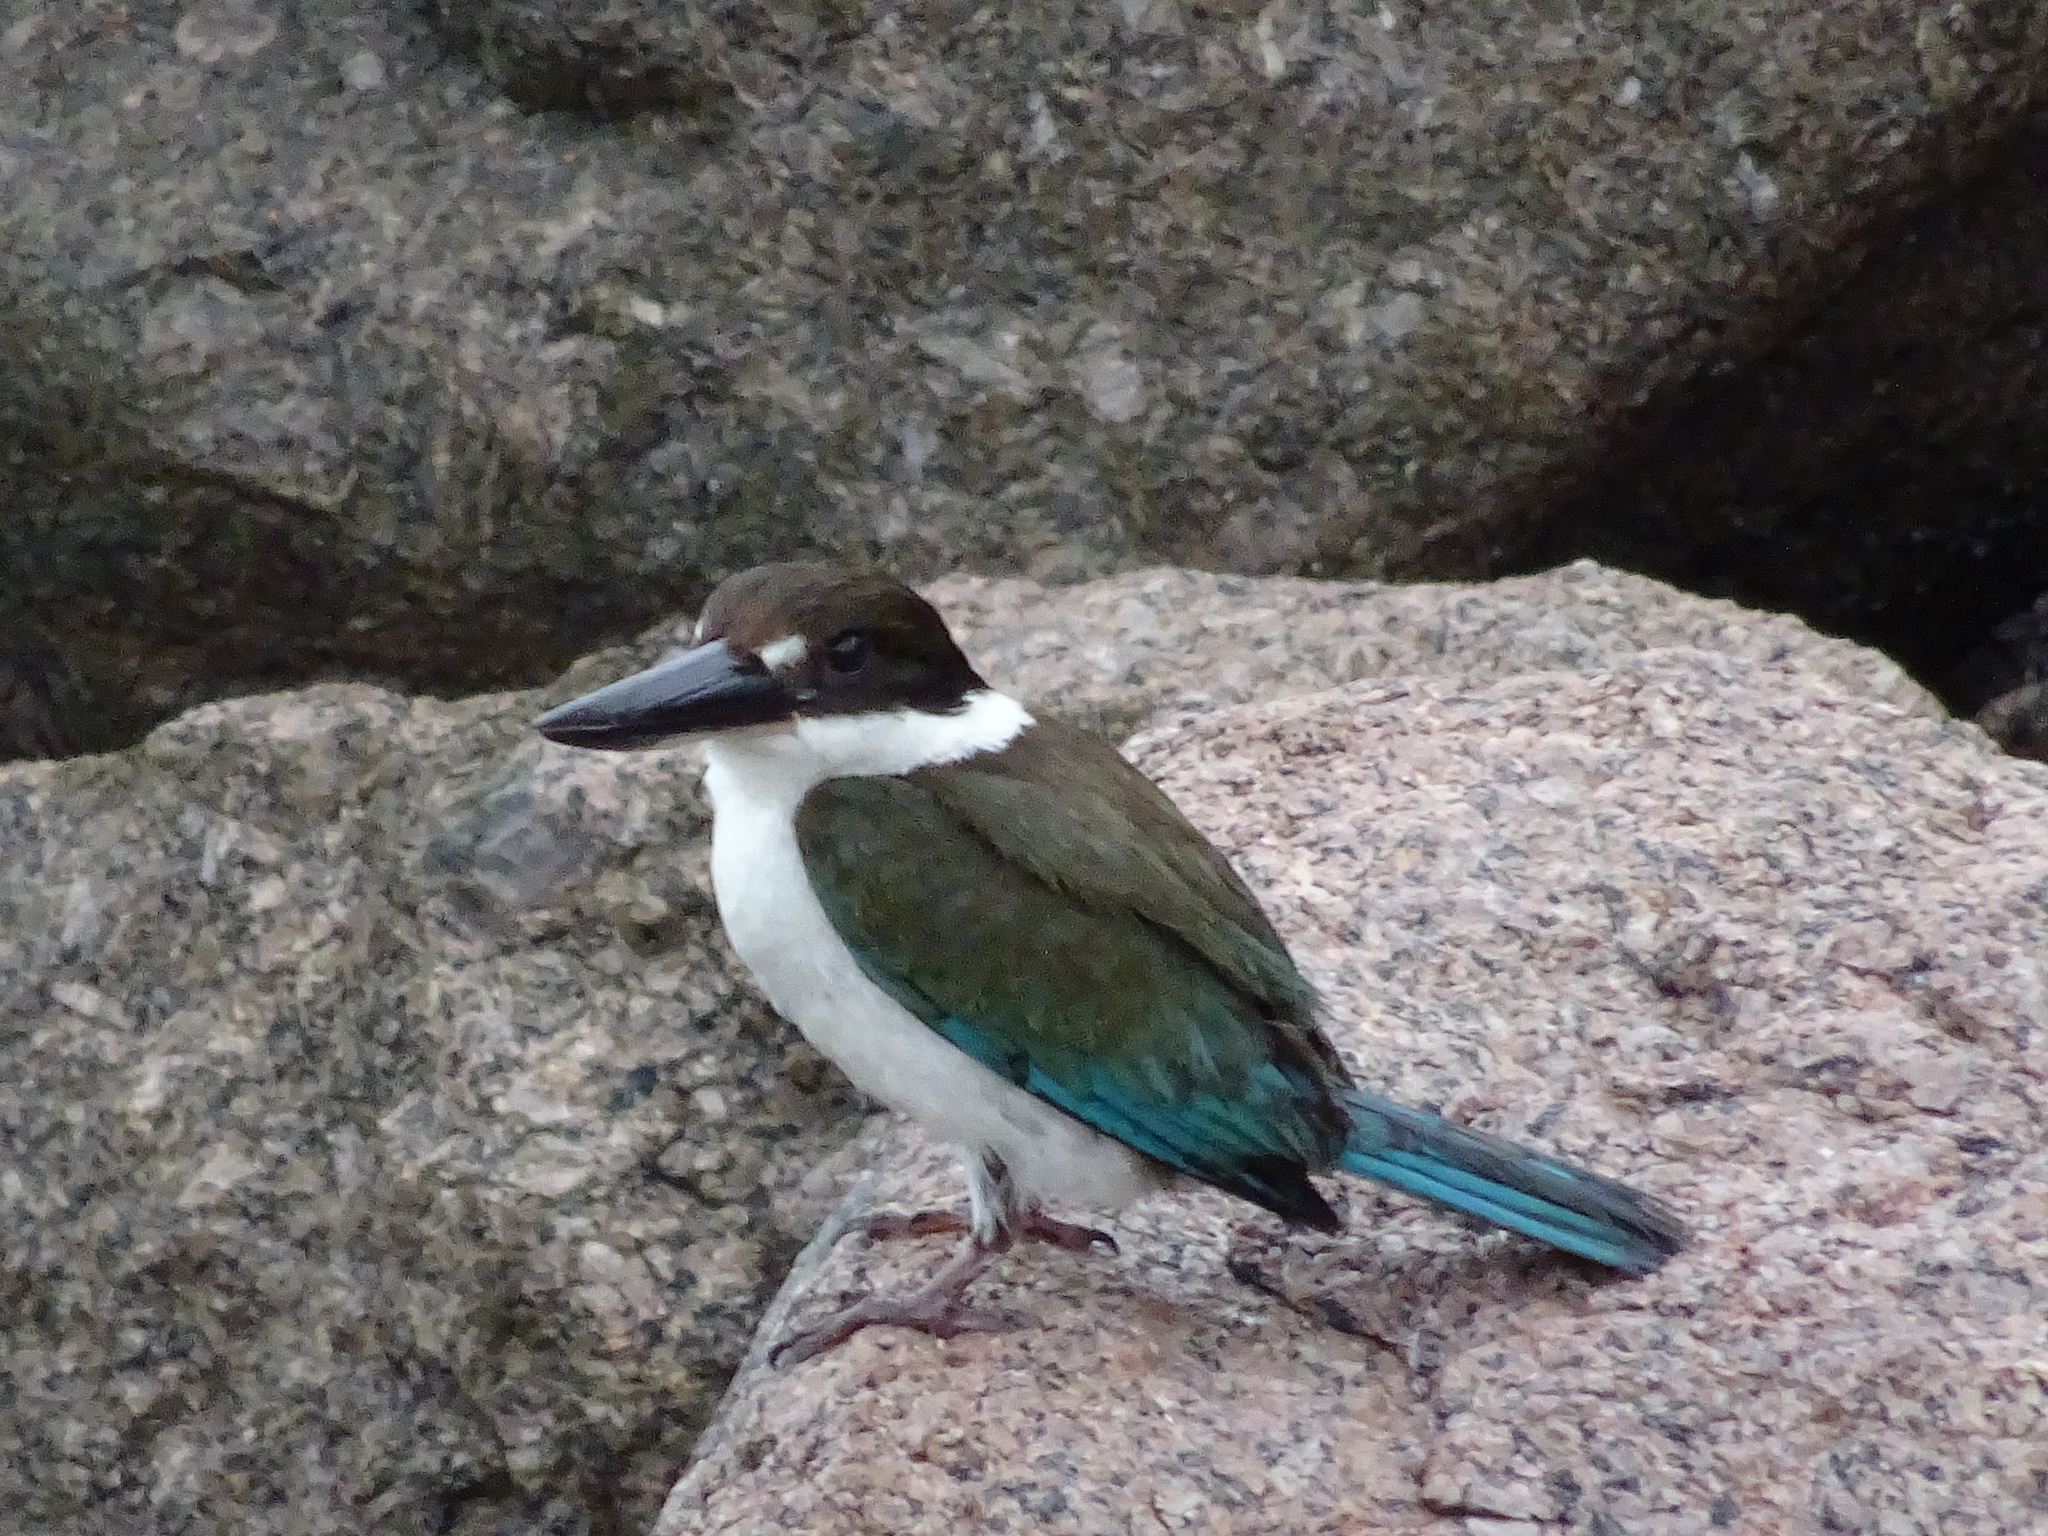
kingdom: Animalia
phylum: Chordata
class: Aves
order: Coraciiformes
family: Alcedinidae
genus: Todiramphus
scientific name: Todiramphus sordidus
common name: Torresian kingfisher
